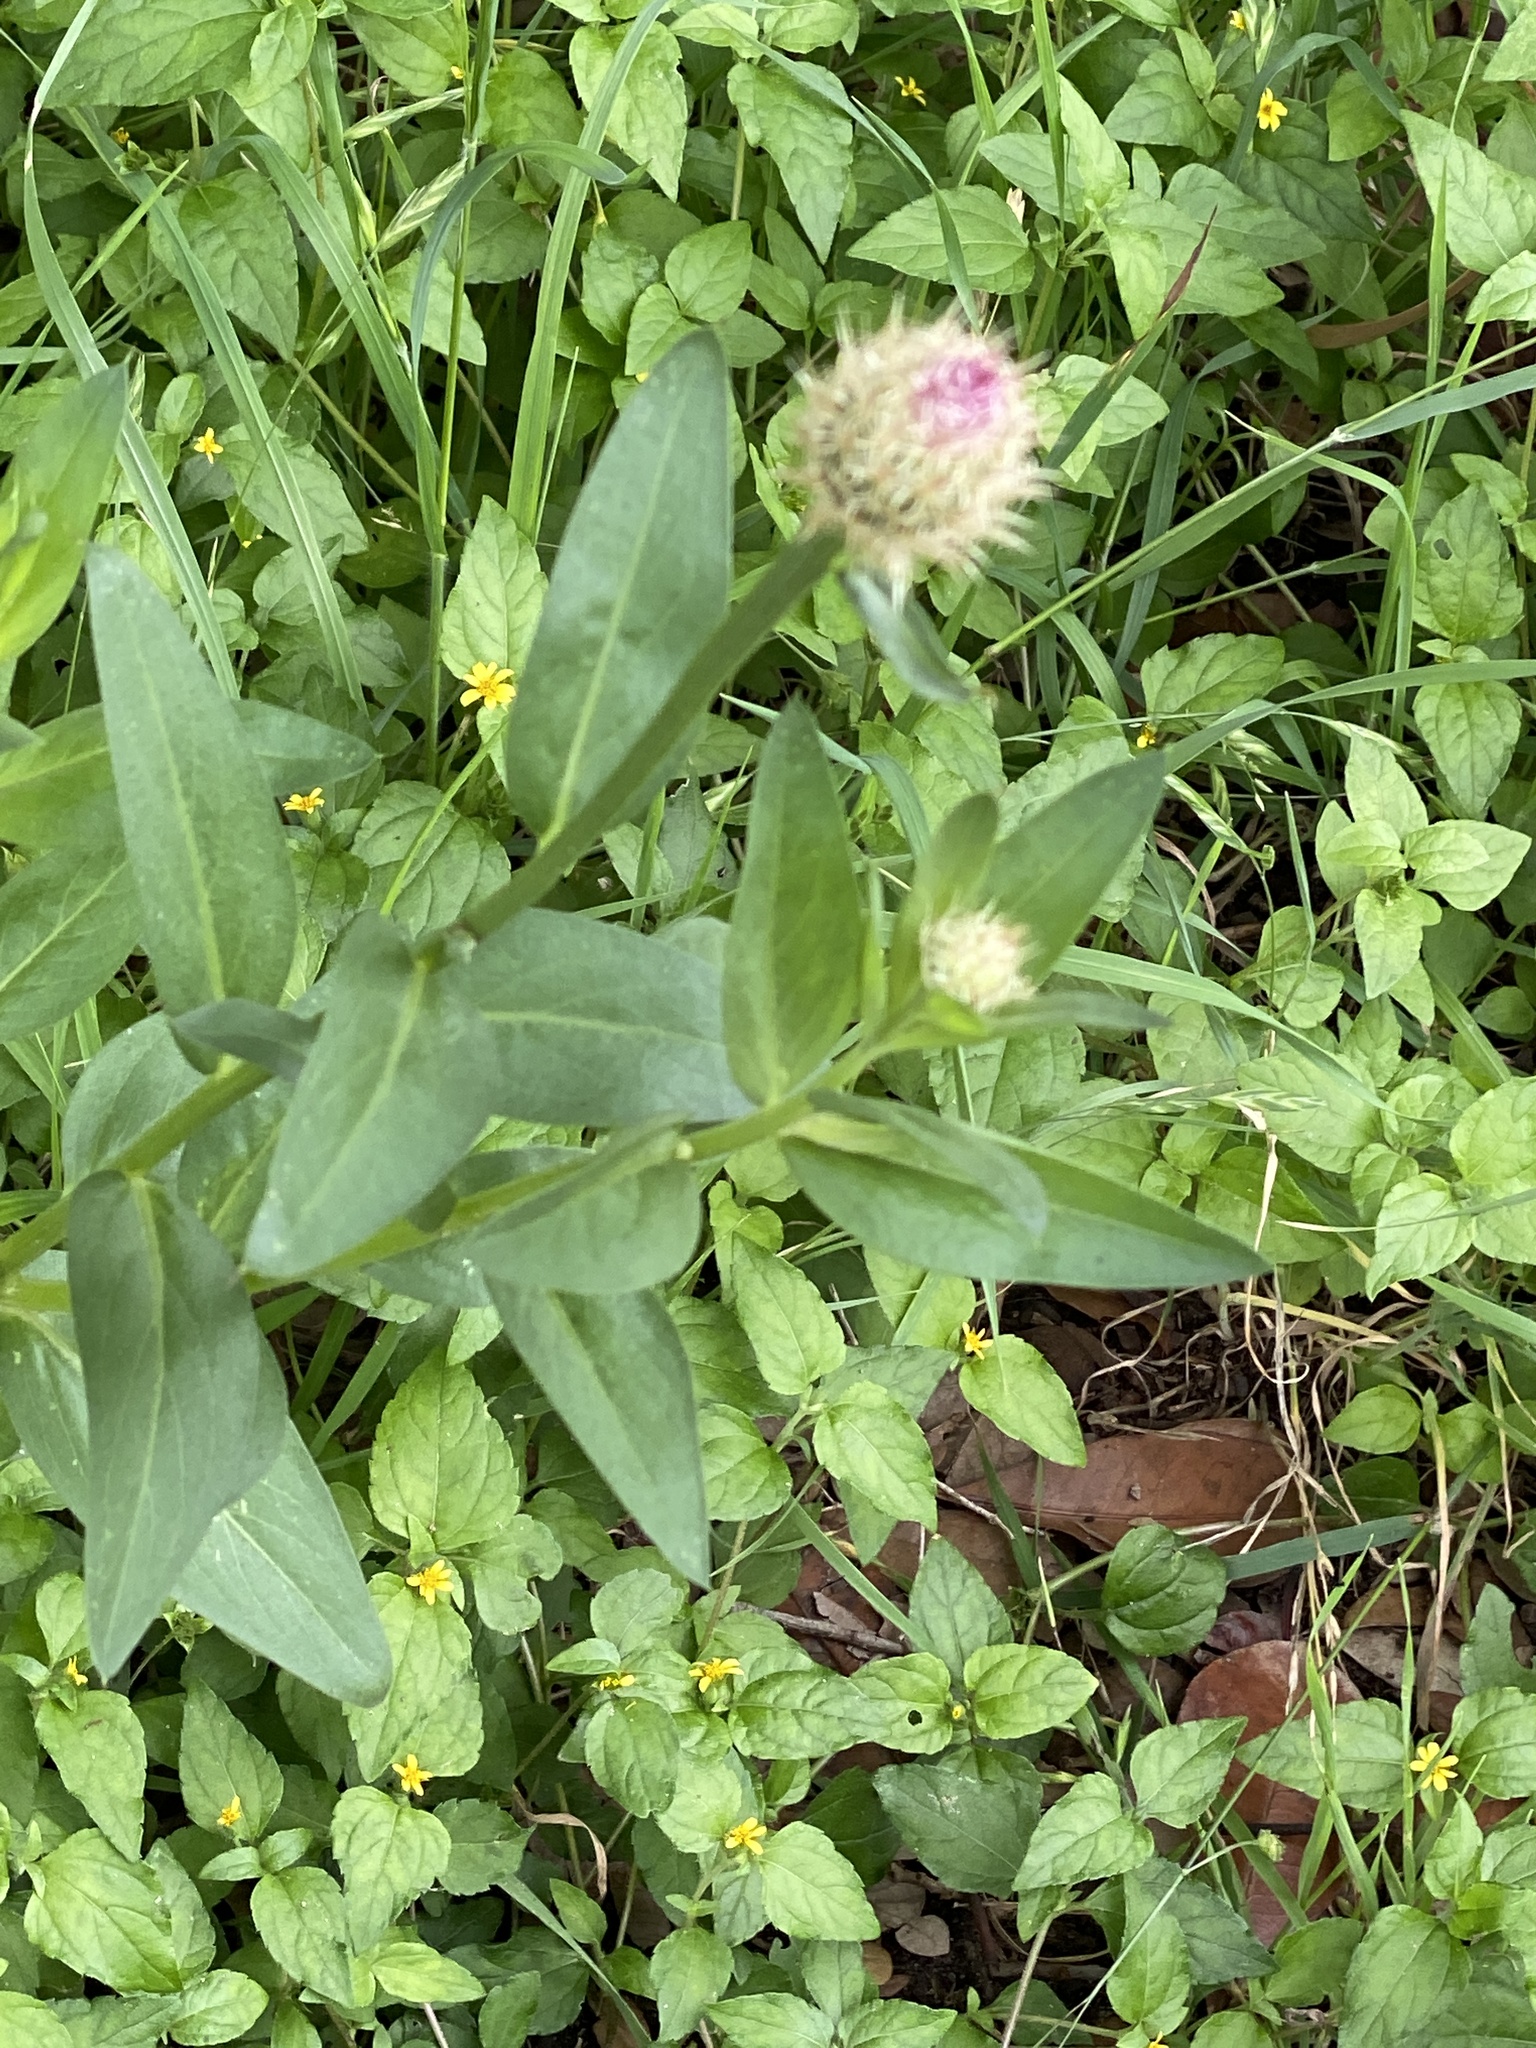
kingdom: Plantae
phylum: Tracheophyta
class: Magnoliopsida
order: Asterales
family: Asteraceae
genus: Plectocephalus
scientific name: Plectocephalus americanus
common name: American basket-flower
